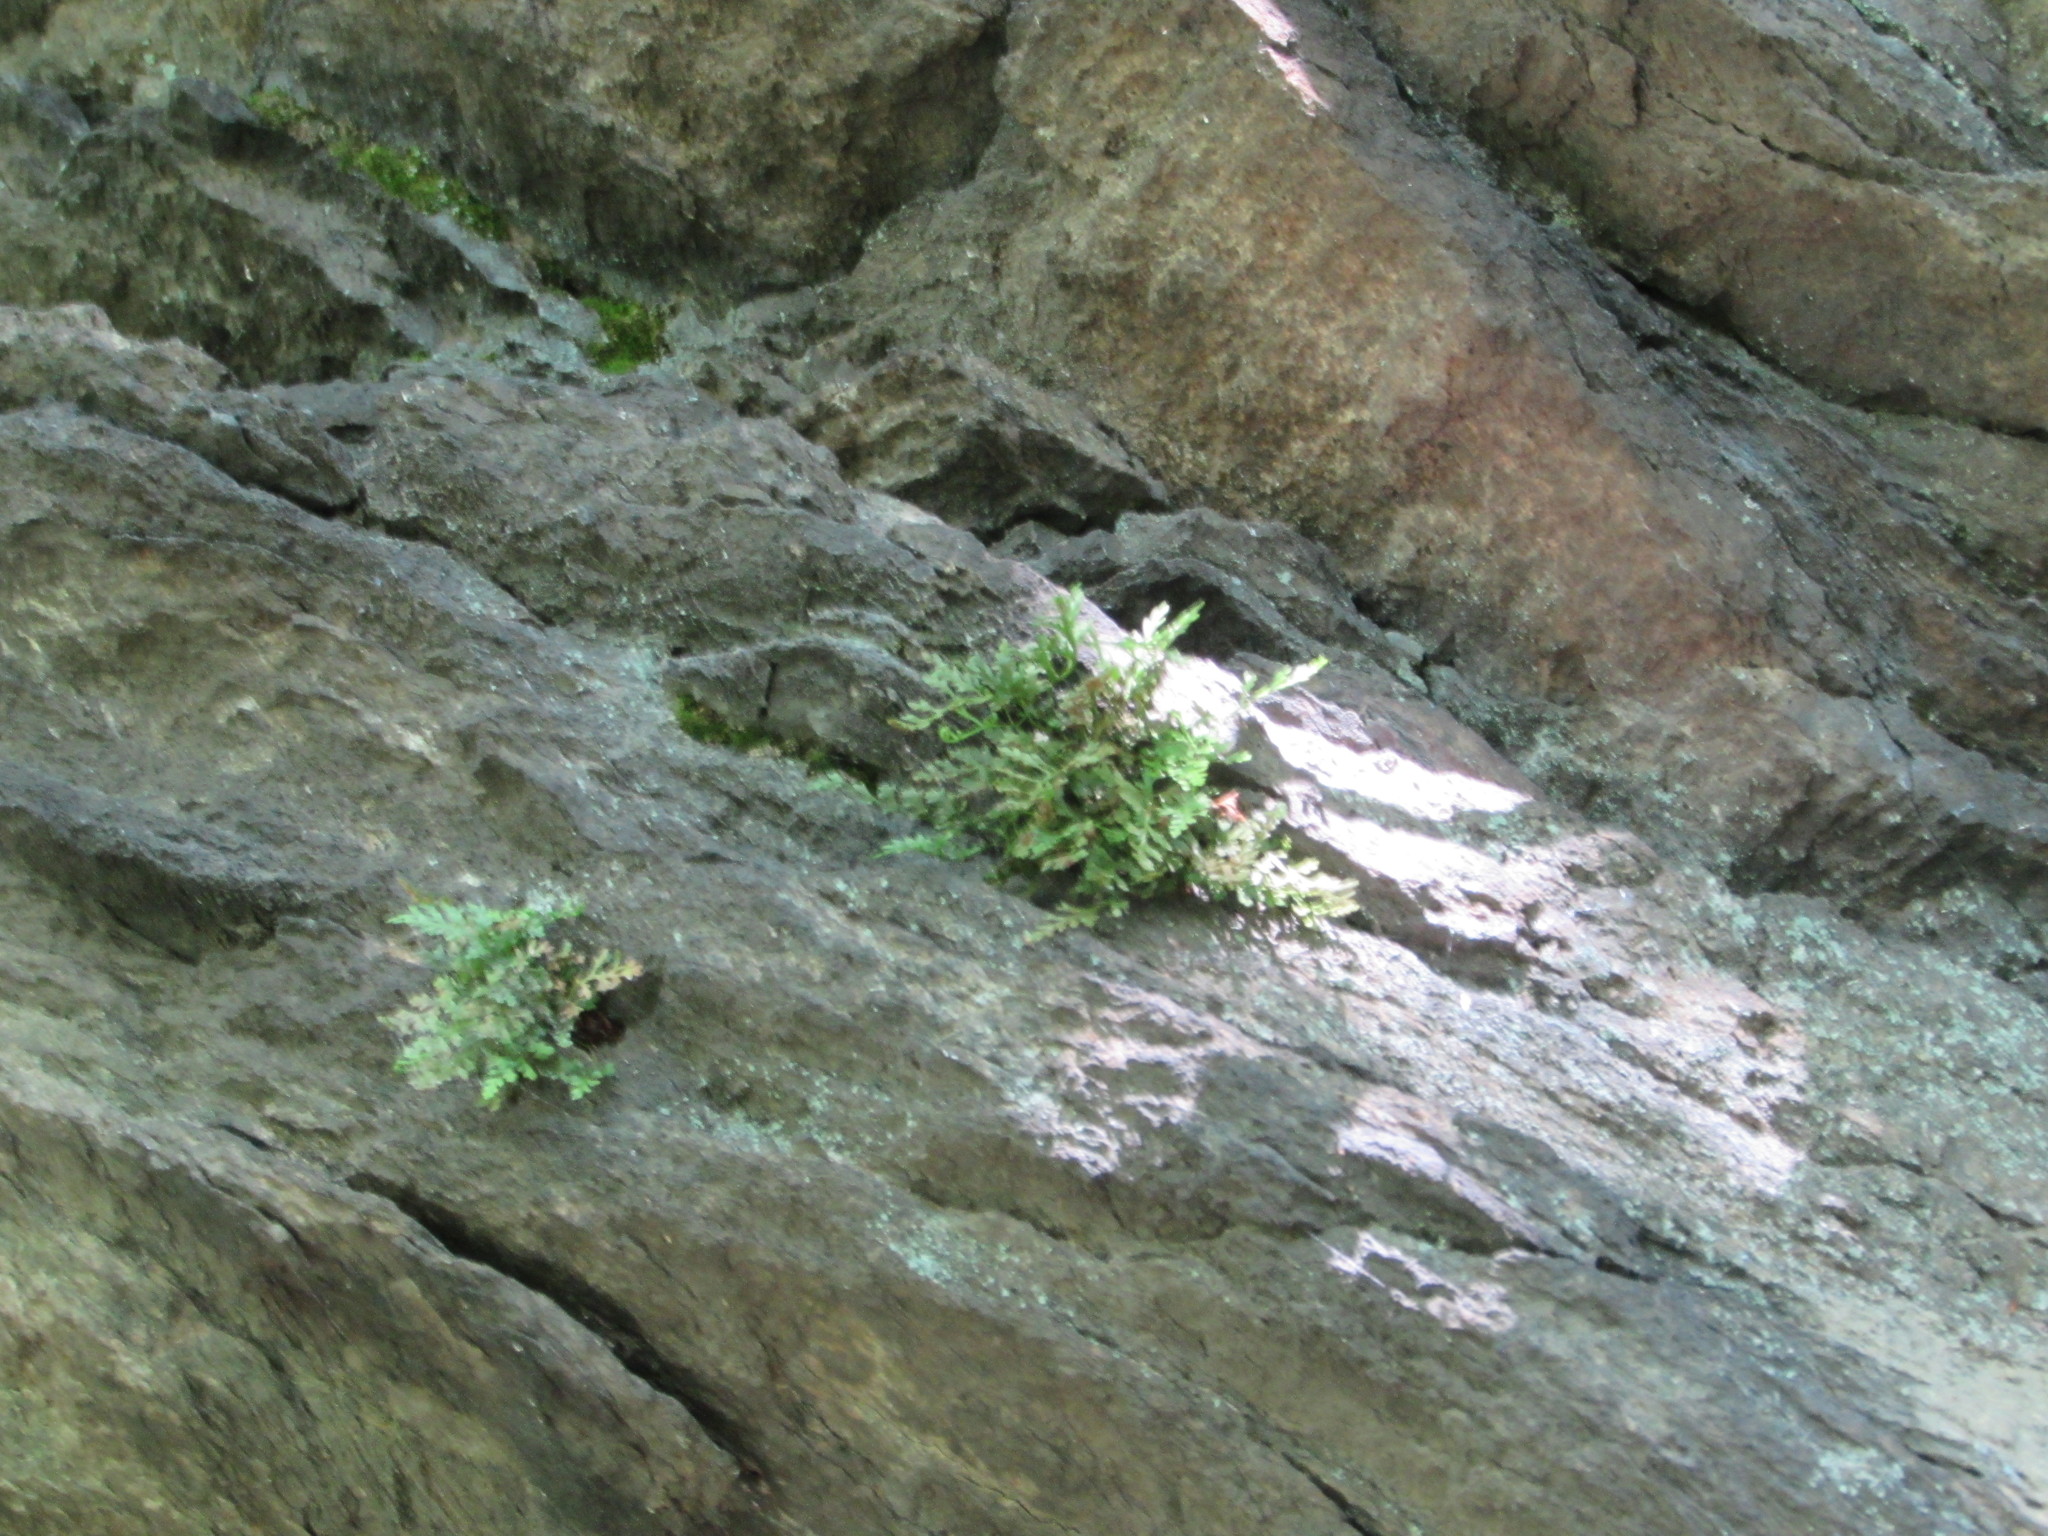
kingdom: Plantae
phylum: Tracheophyta
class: Polypodiopsida
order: Polypodiales
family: Aspleniaceae
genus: Asplenium
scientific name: Asplenium montanum
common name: Mountain spleenwort
